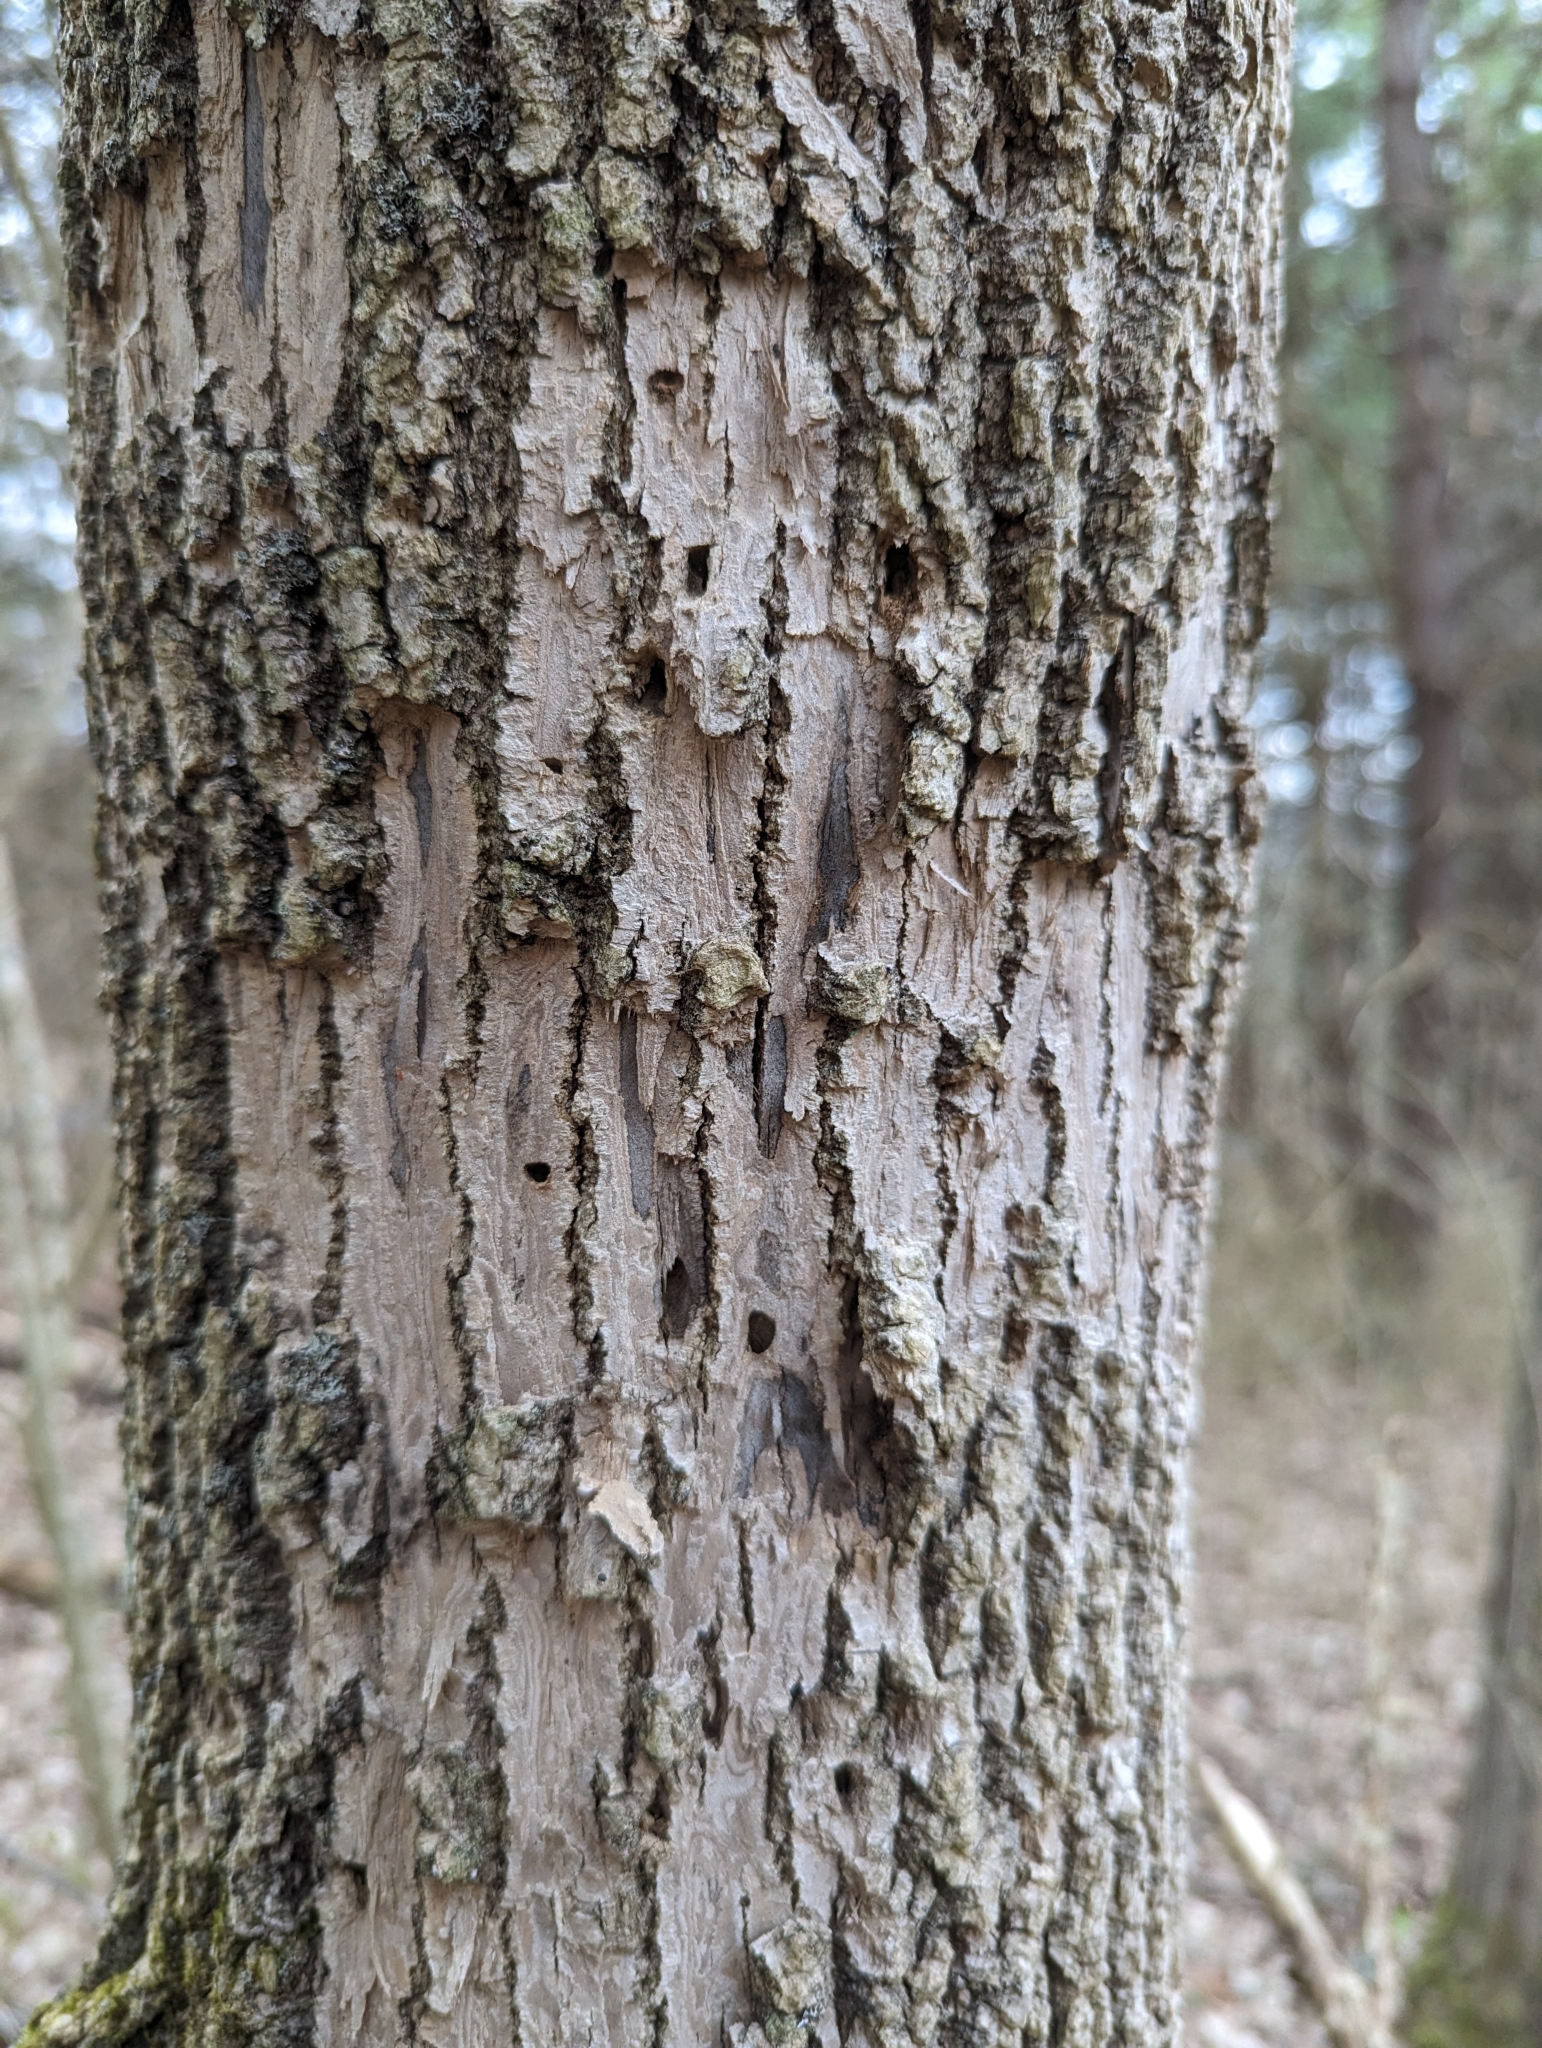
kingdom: Animalia
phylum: Arthropoda
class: Insecta
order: Coleoptera
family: Buprestidae
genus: Agrilus
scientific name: Agrilus planipennis
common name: Emerald ash borer
